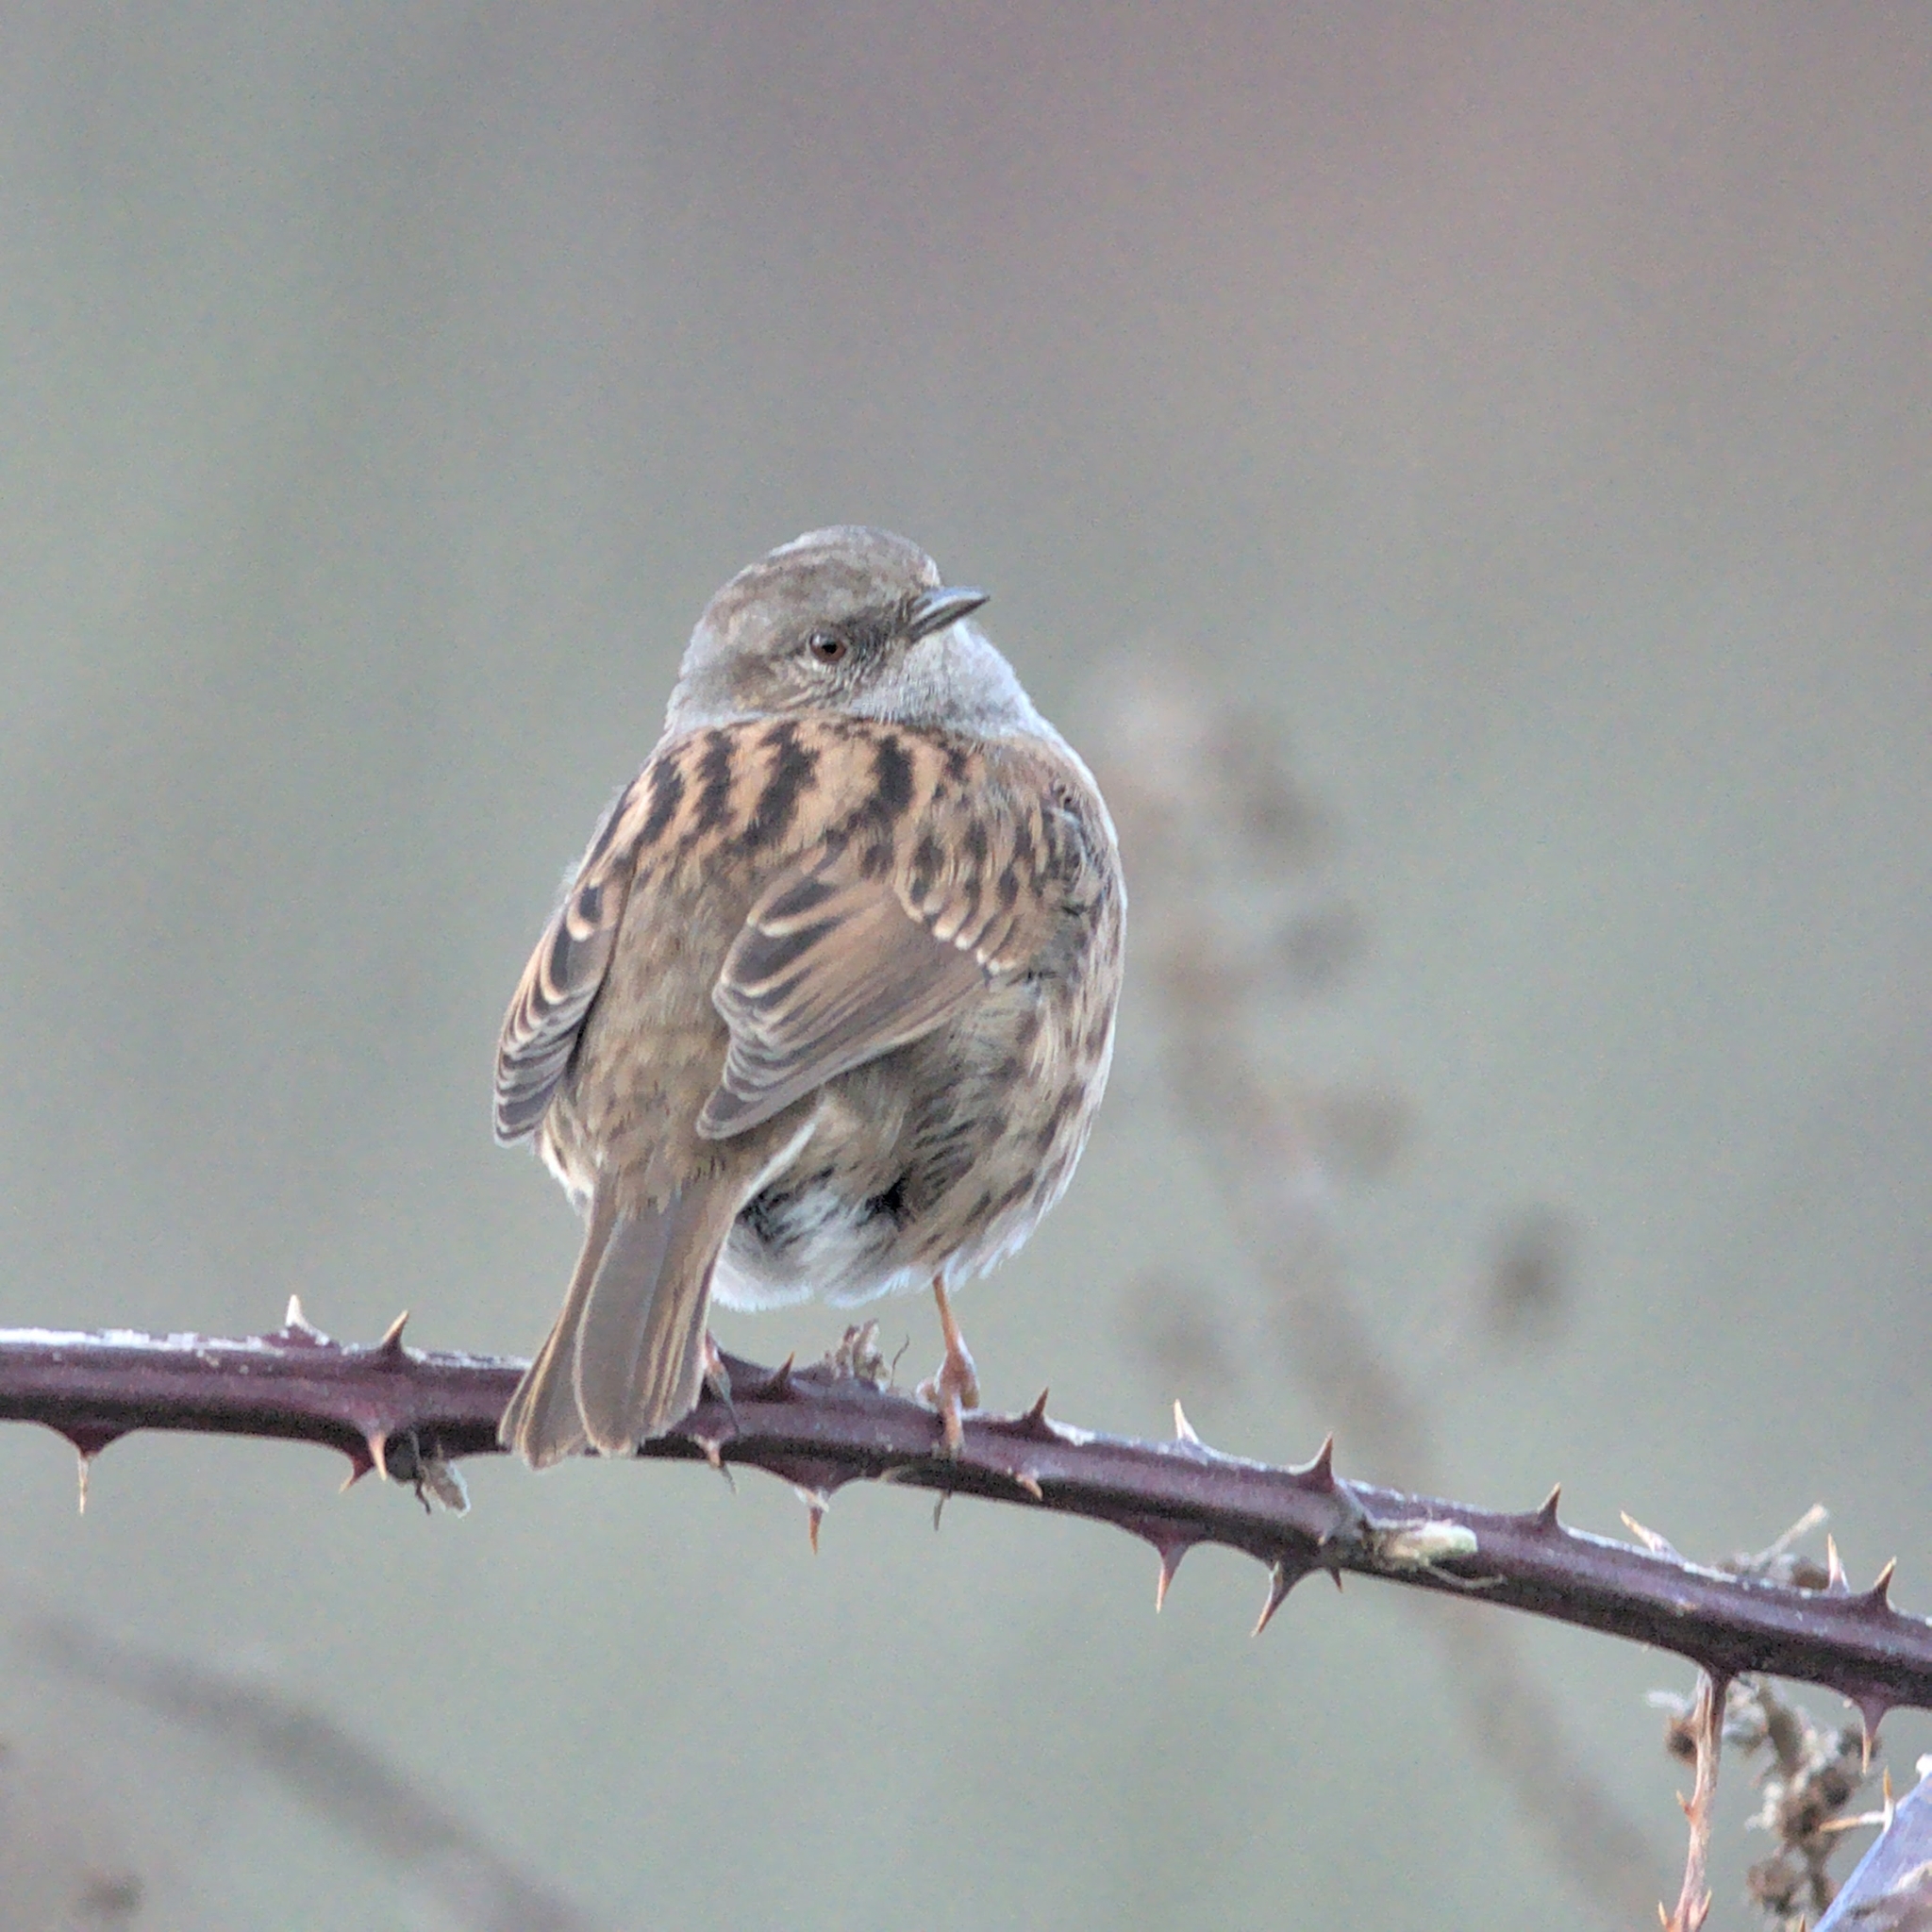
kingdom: Animalia
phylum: Chordata
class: Aves
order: Passeriformes
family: Prunellidae
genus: Prunella
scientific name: Prunella modularis
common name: Dunnock
